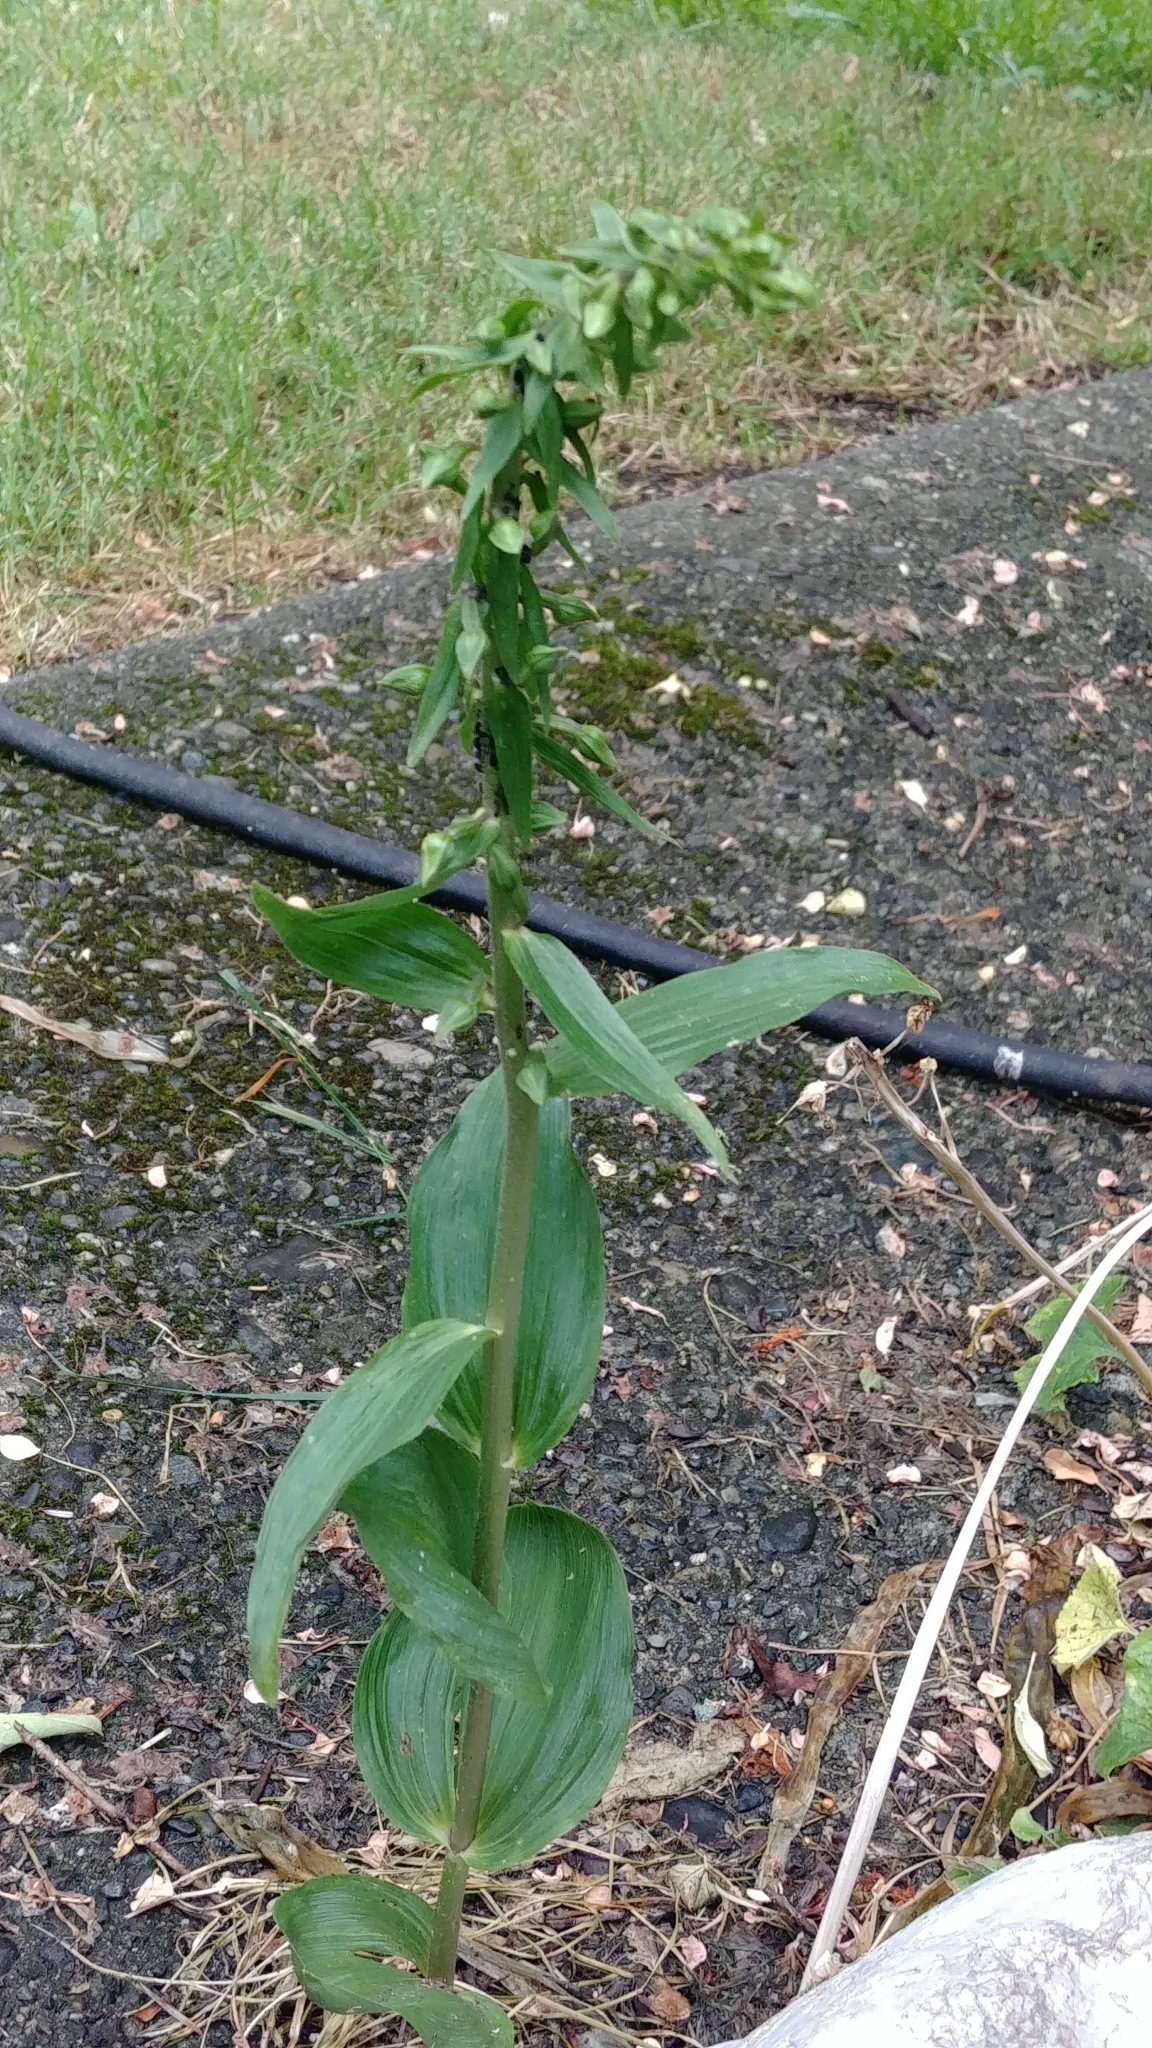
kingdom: Plantae
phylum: Tracheophyta
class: Liliopsida
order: Asparagales
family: Orchidaceae
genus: Epipactis
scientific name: Epipactis helleborine
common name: Broad-leaved helleborine
